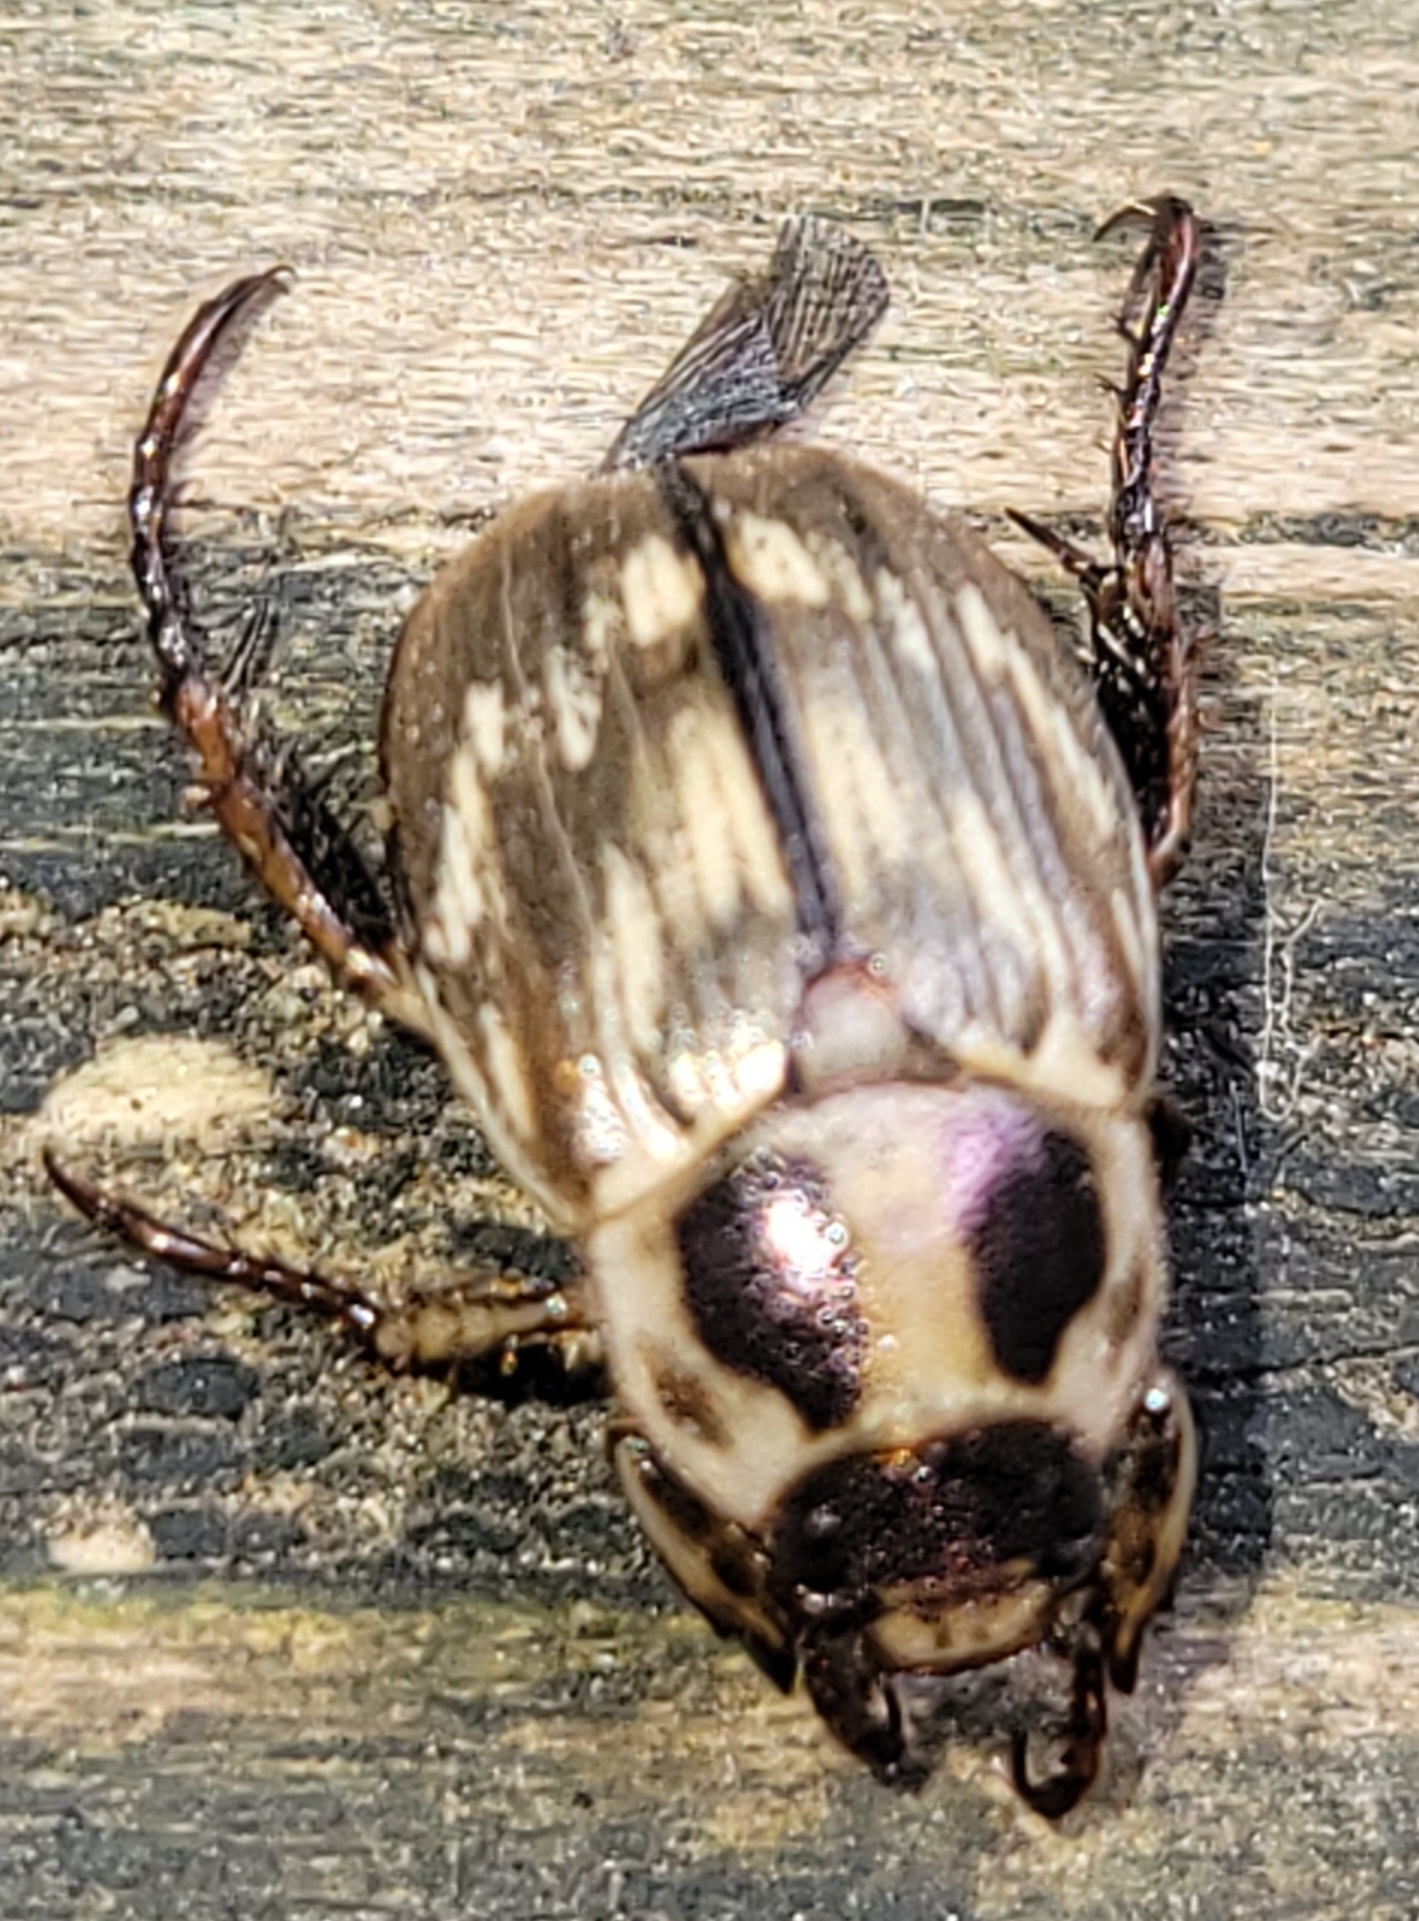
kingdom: Animalia
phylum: Arthropoda
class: Insecta
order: Coleoptera
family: Scarabaeidae
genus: Exomala
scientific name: Exomala orientalis
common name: Oriental beetle
